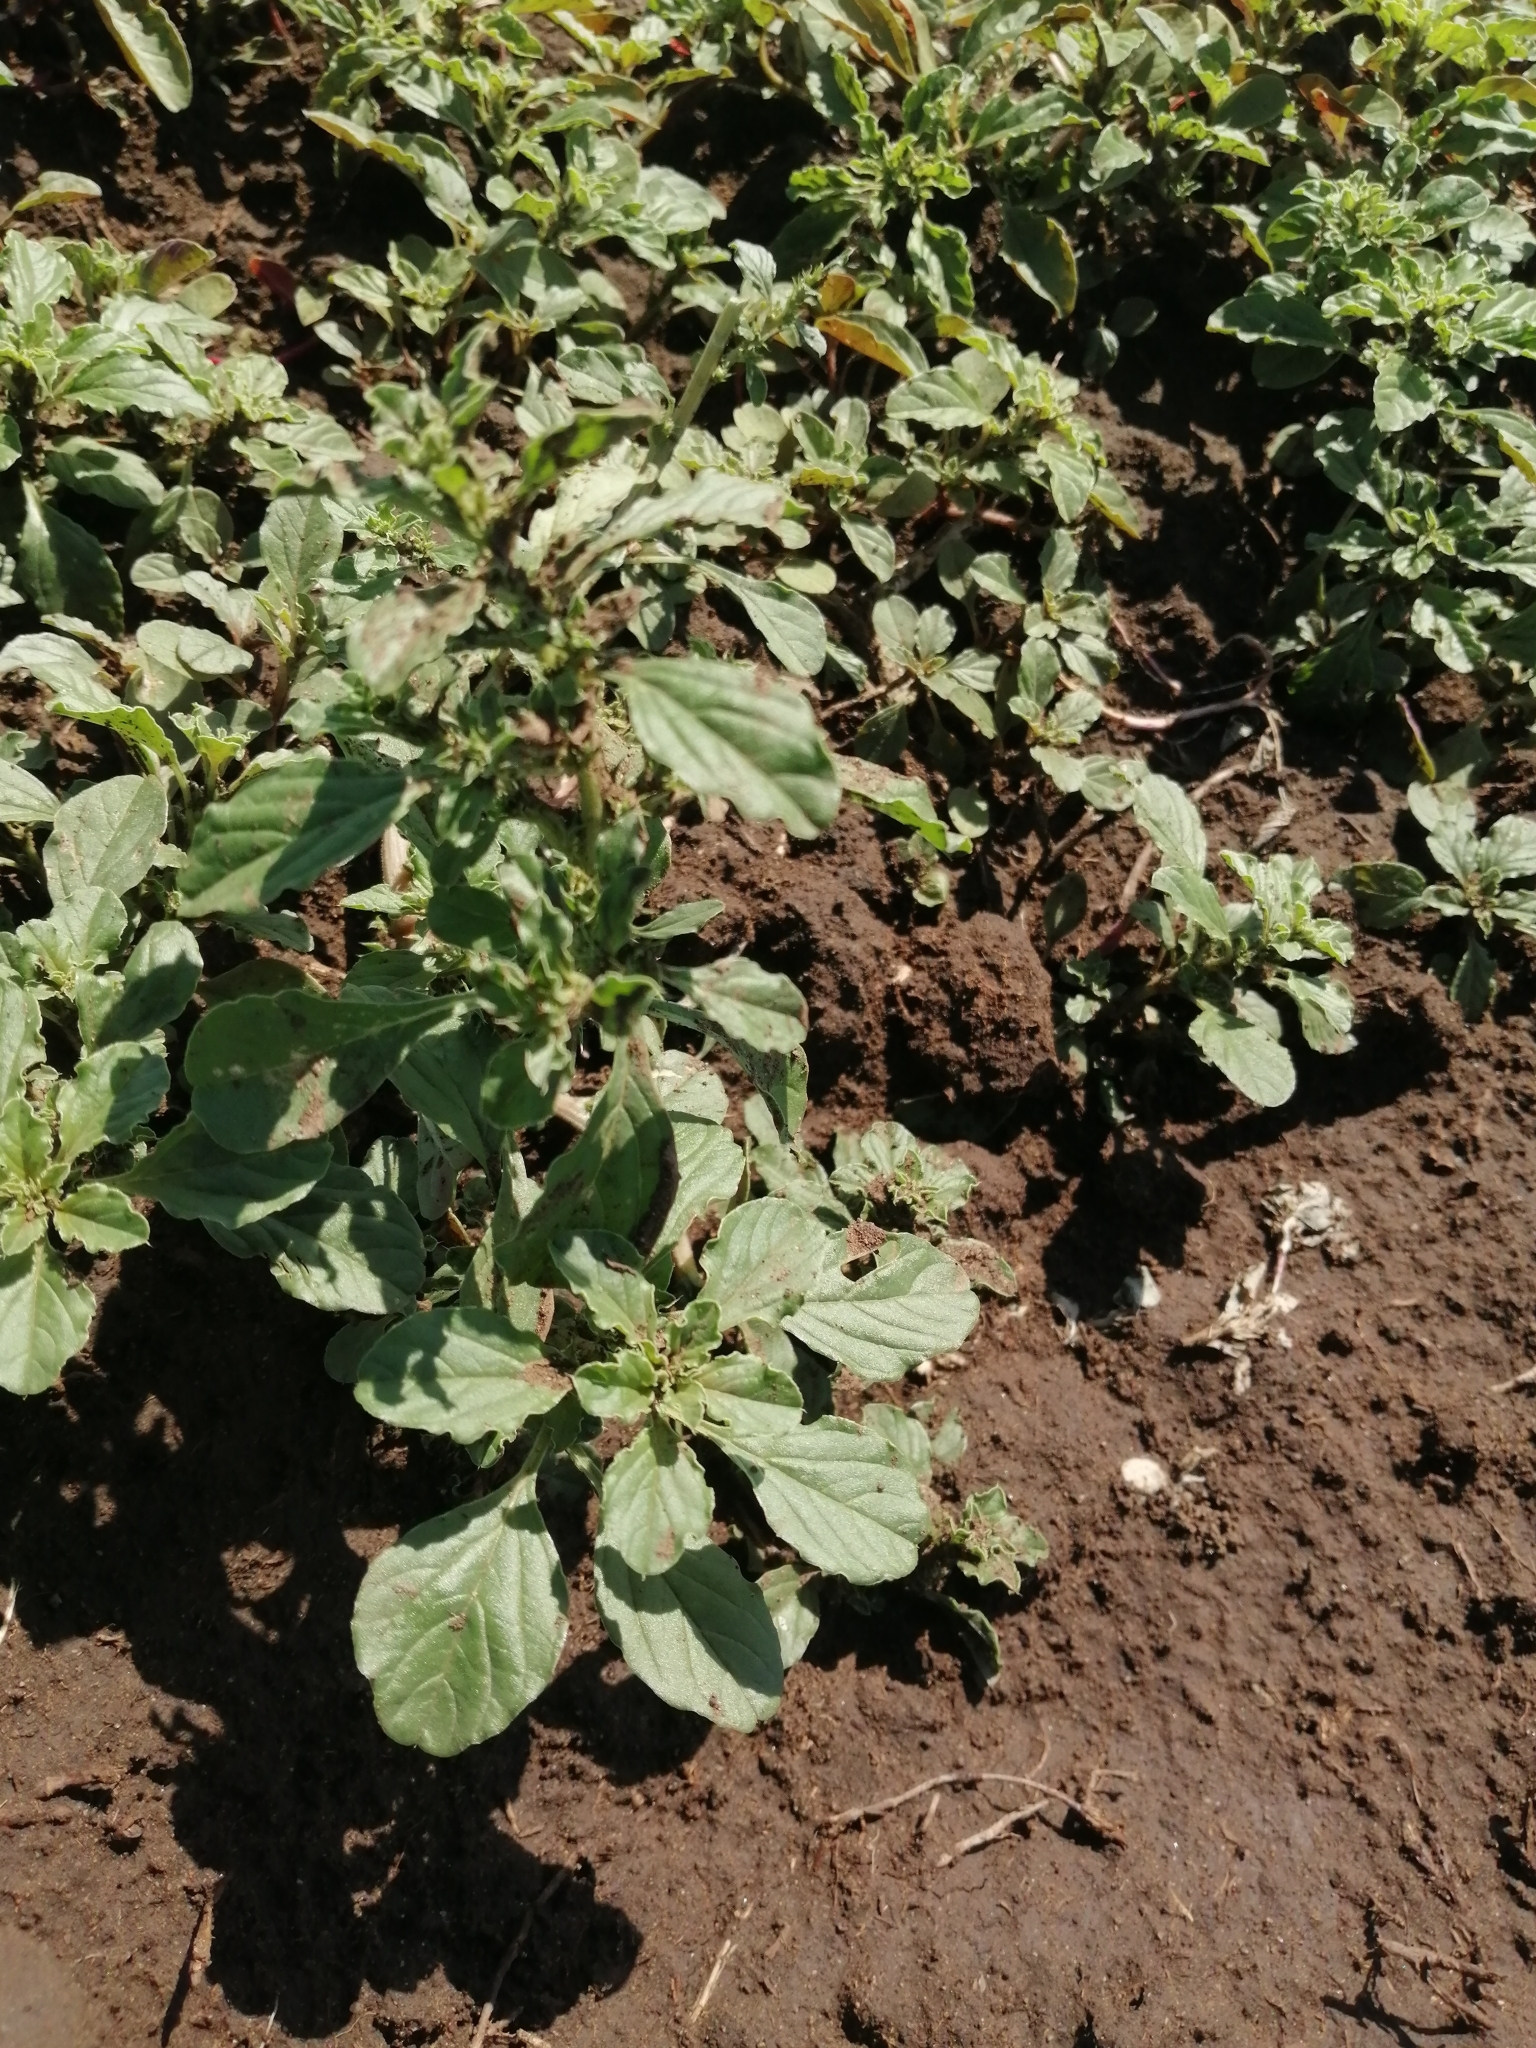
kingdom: Plantae
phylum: Tracheophyta
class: Magnoliopsida
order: Caryophyllales
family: Amaranthaceae
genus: Amaranthus
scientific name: Amaranthus blitoides
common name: Prostrate pigweed
